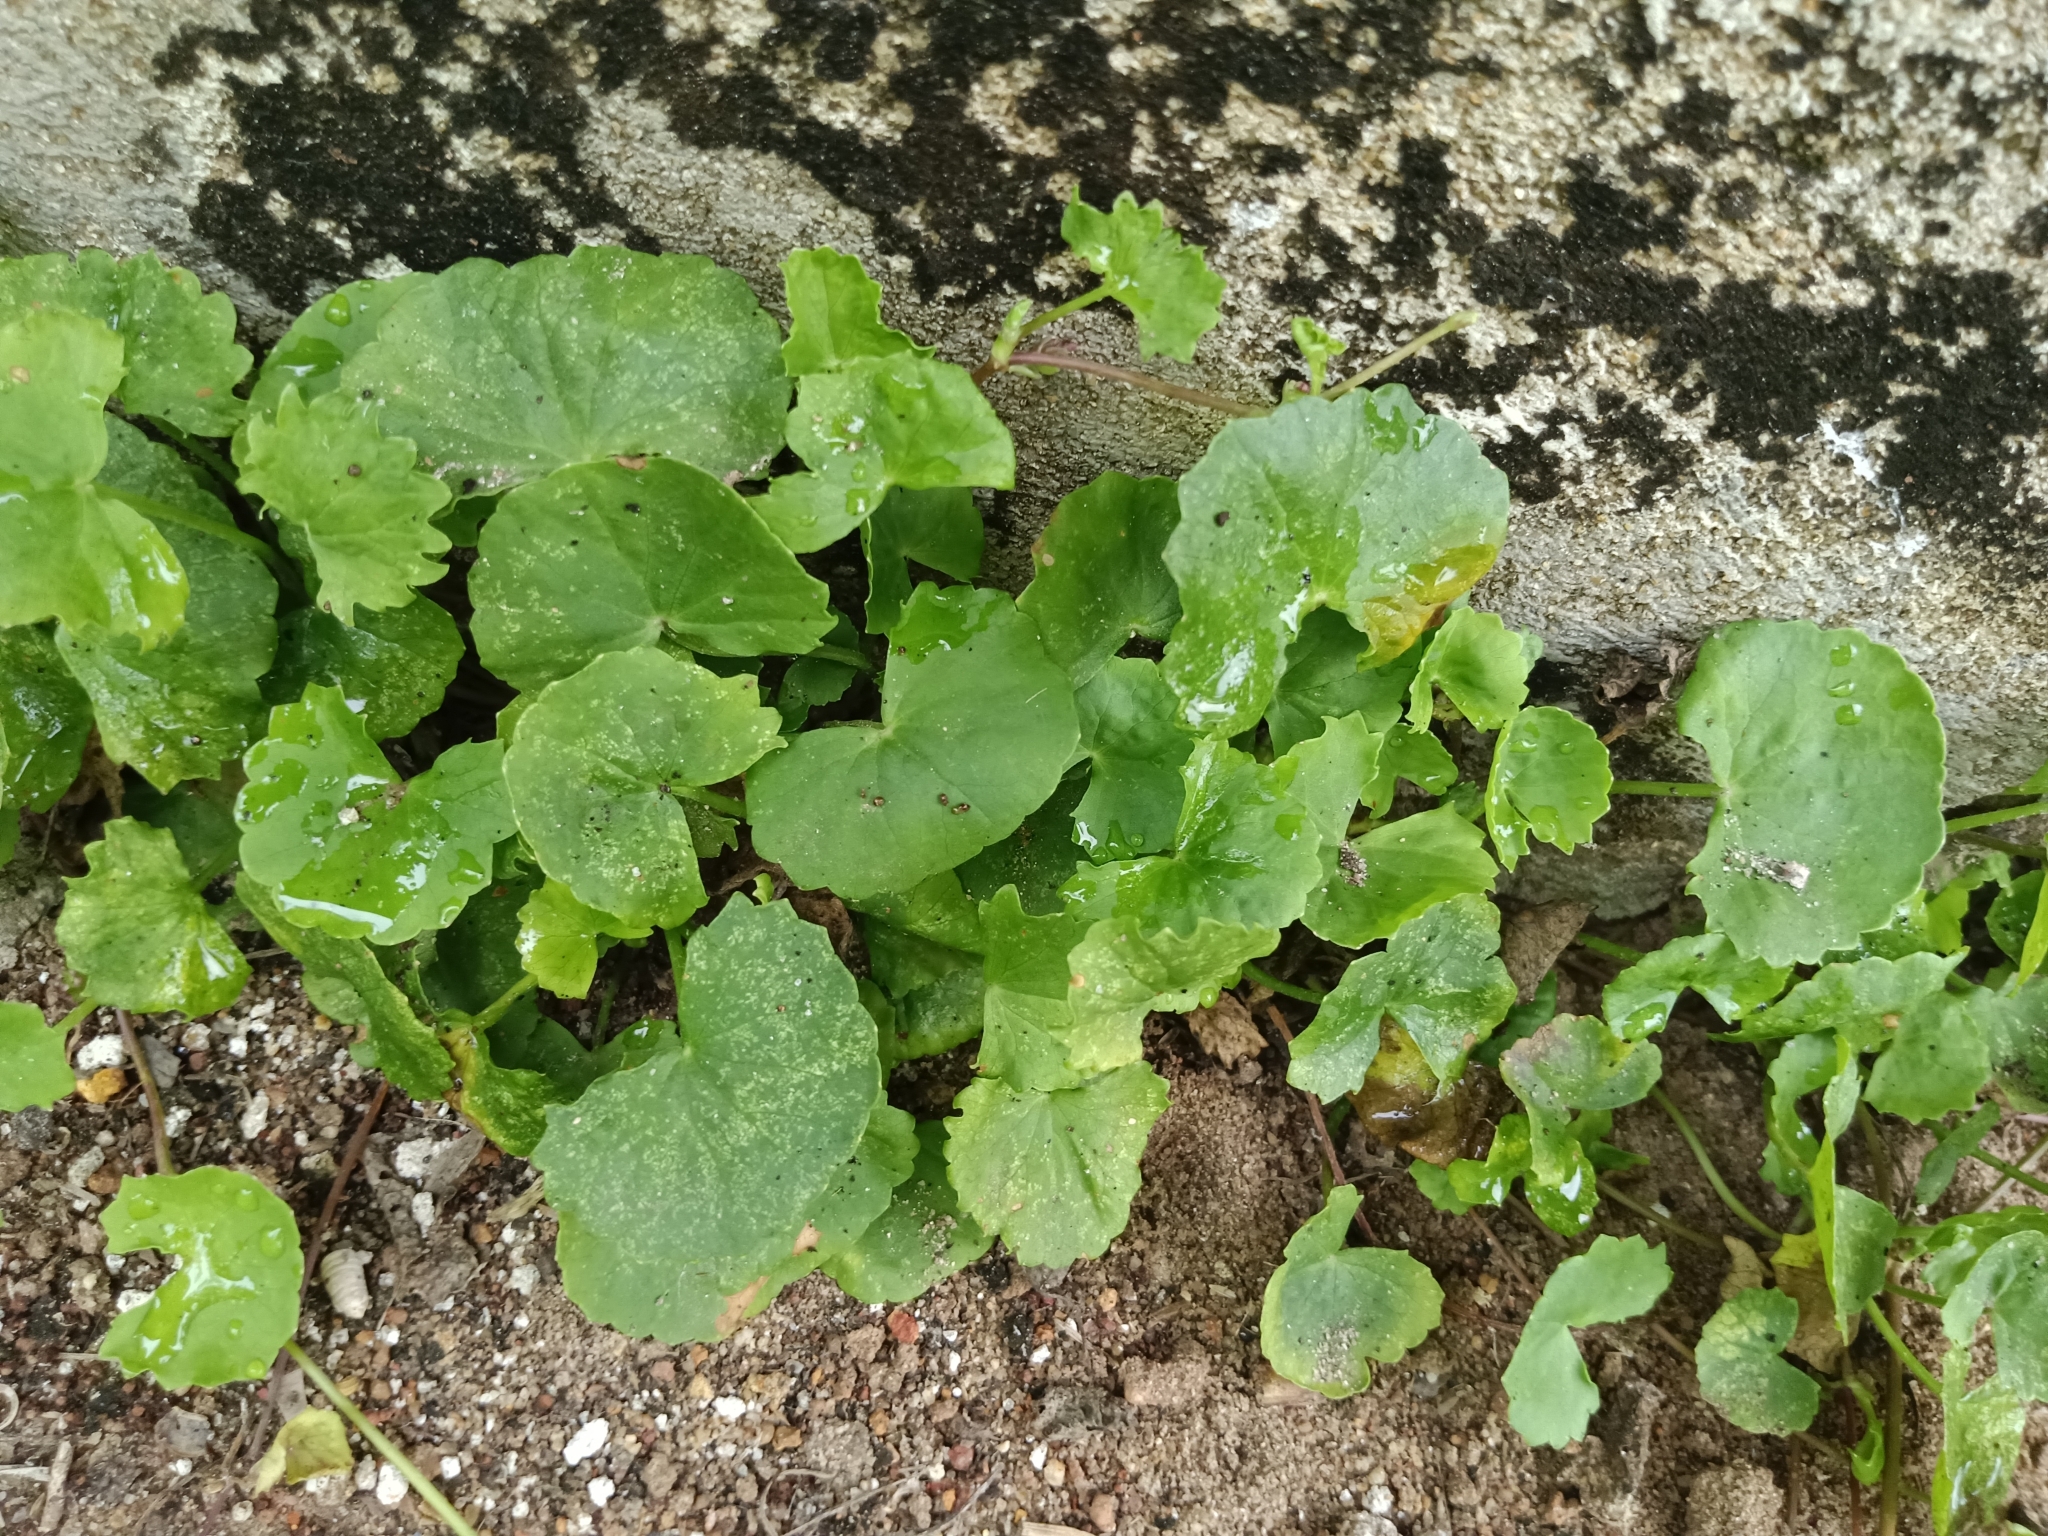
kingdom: Plantae
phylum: Tracheophyta
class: Magnoliopsida
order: Apiales
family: Apiaceae
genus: Centella
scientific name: Centella asiatica
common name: Spadeleaf
